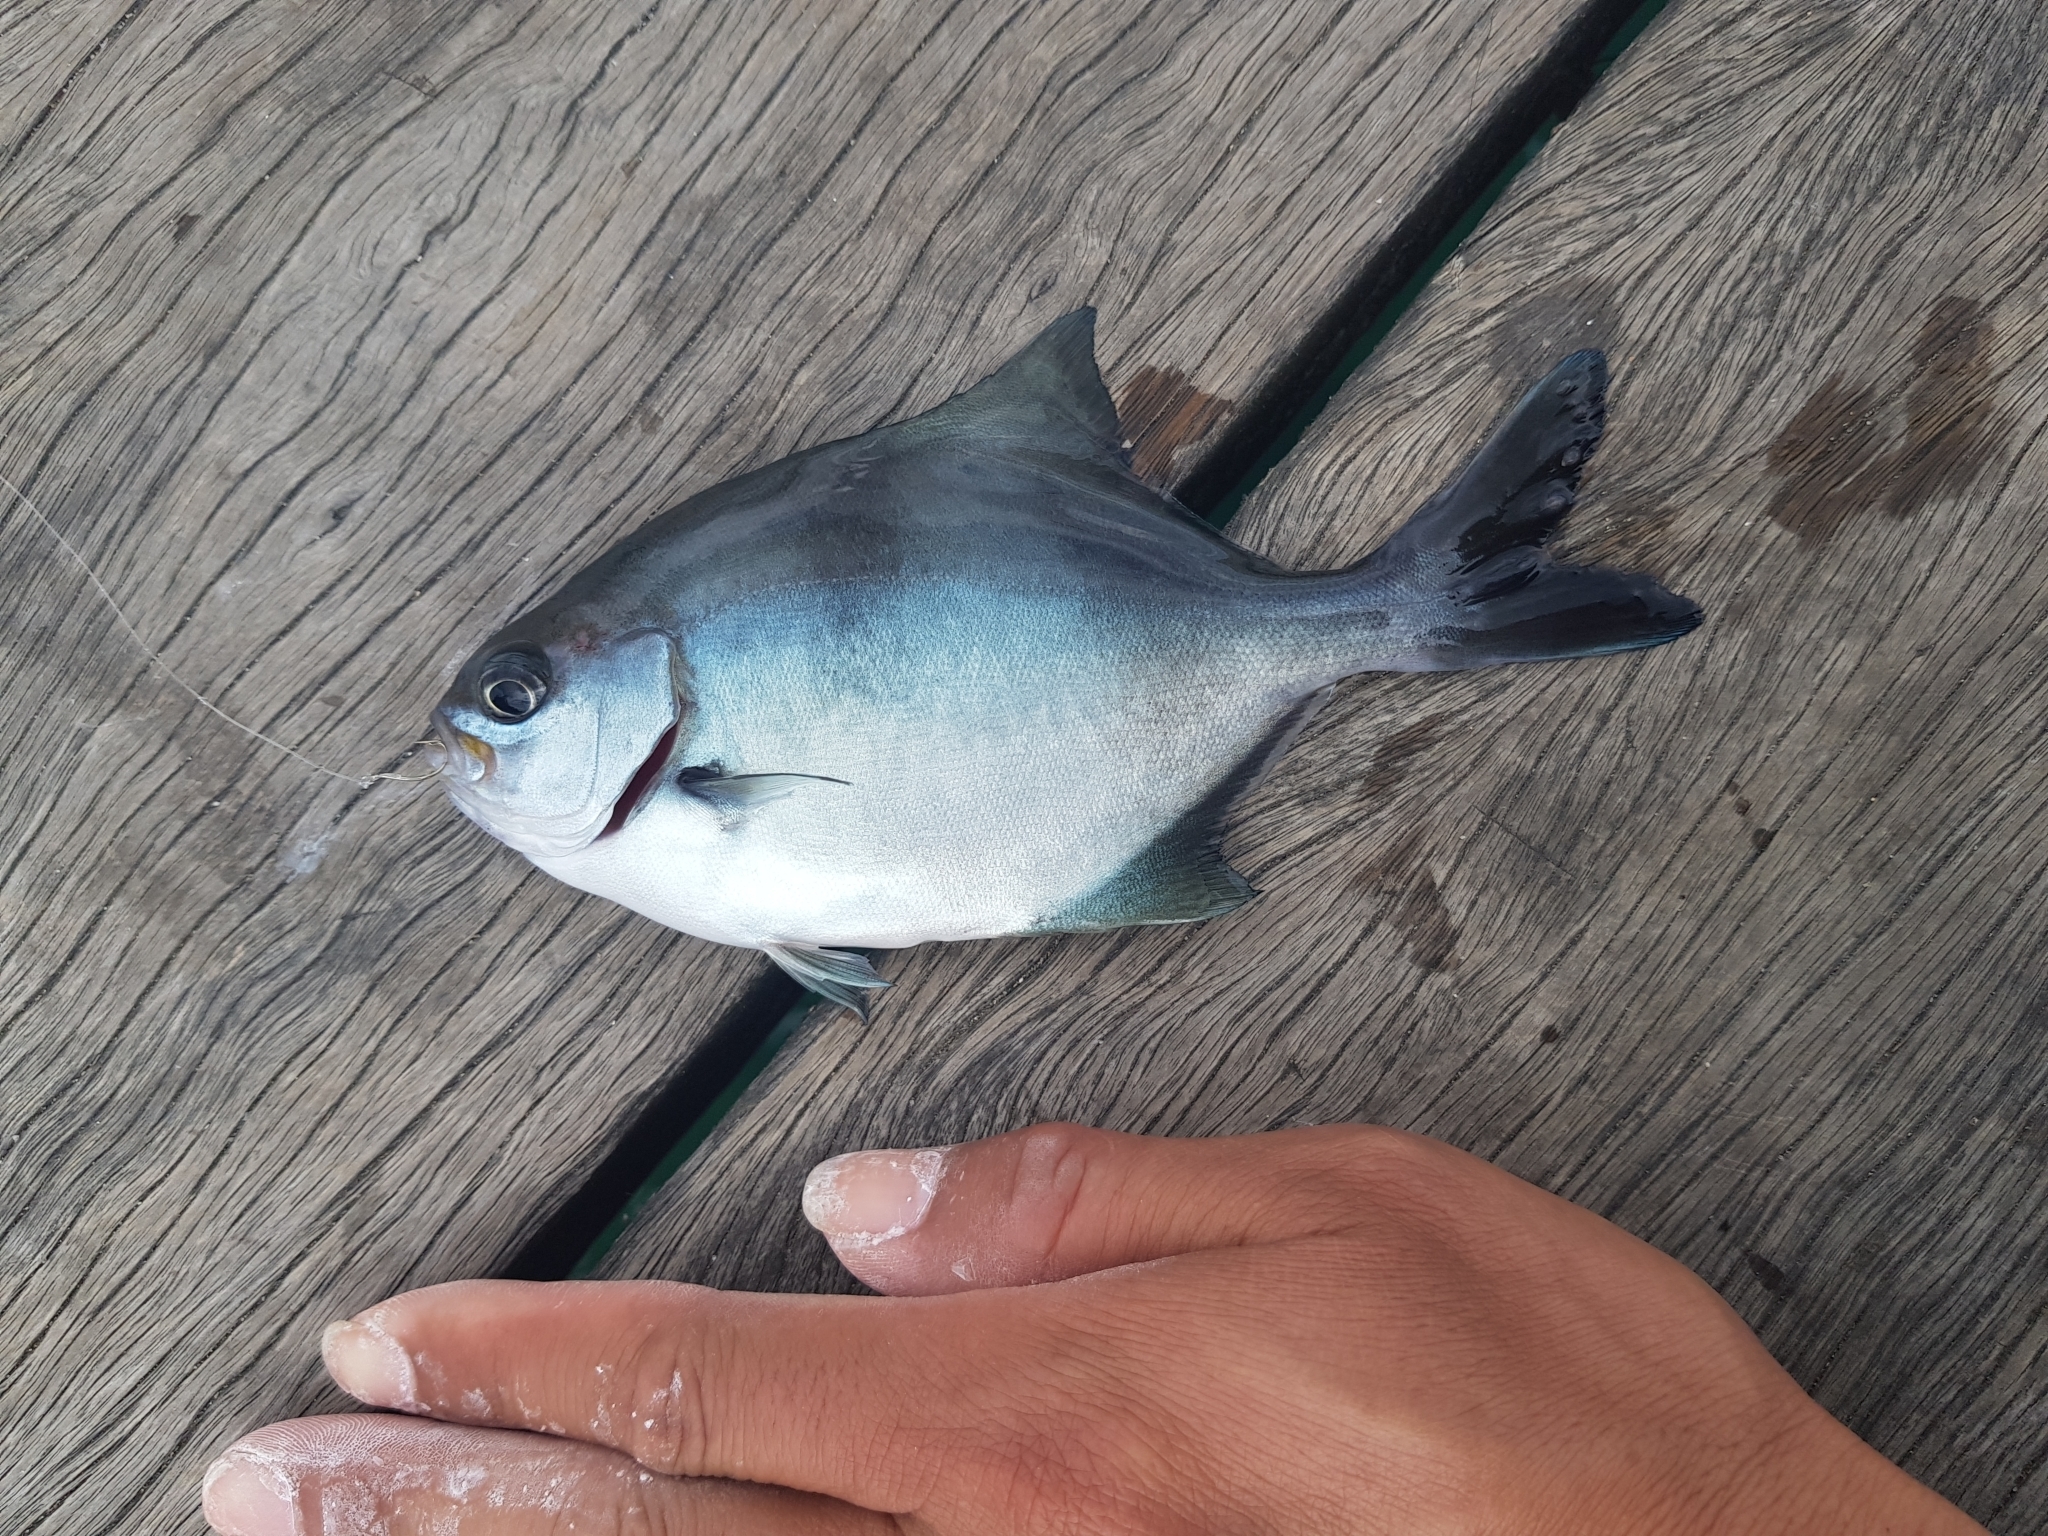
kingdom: Animalia
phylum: Chordata
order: Perciformes
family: Kyphosidae
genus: Scorpis
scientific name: Scorpis aequipinnis
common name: Sea sweep
